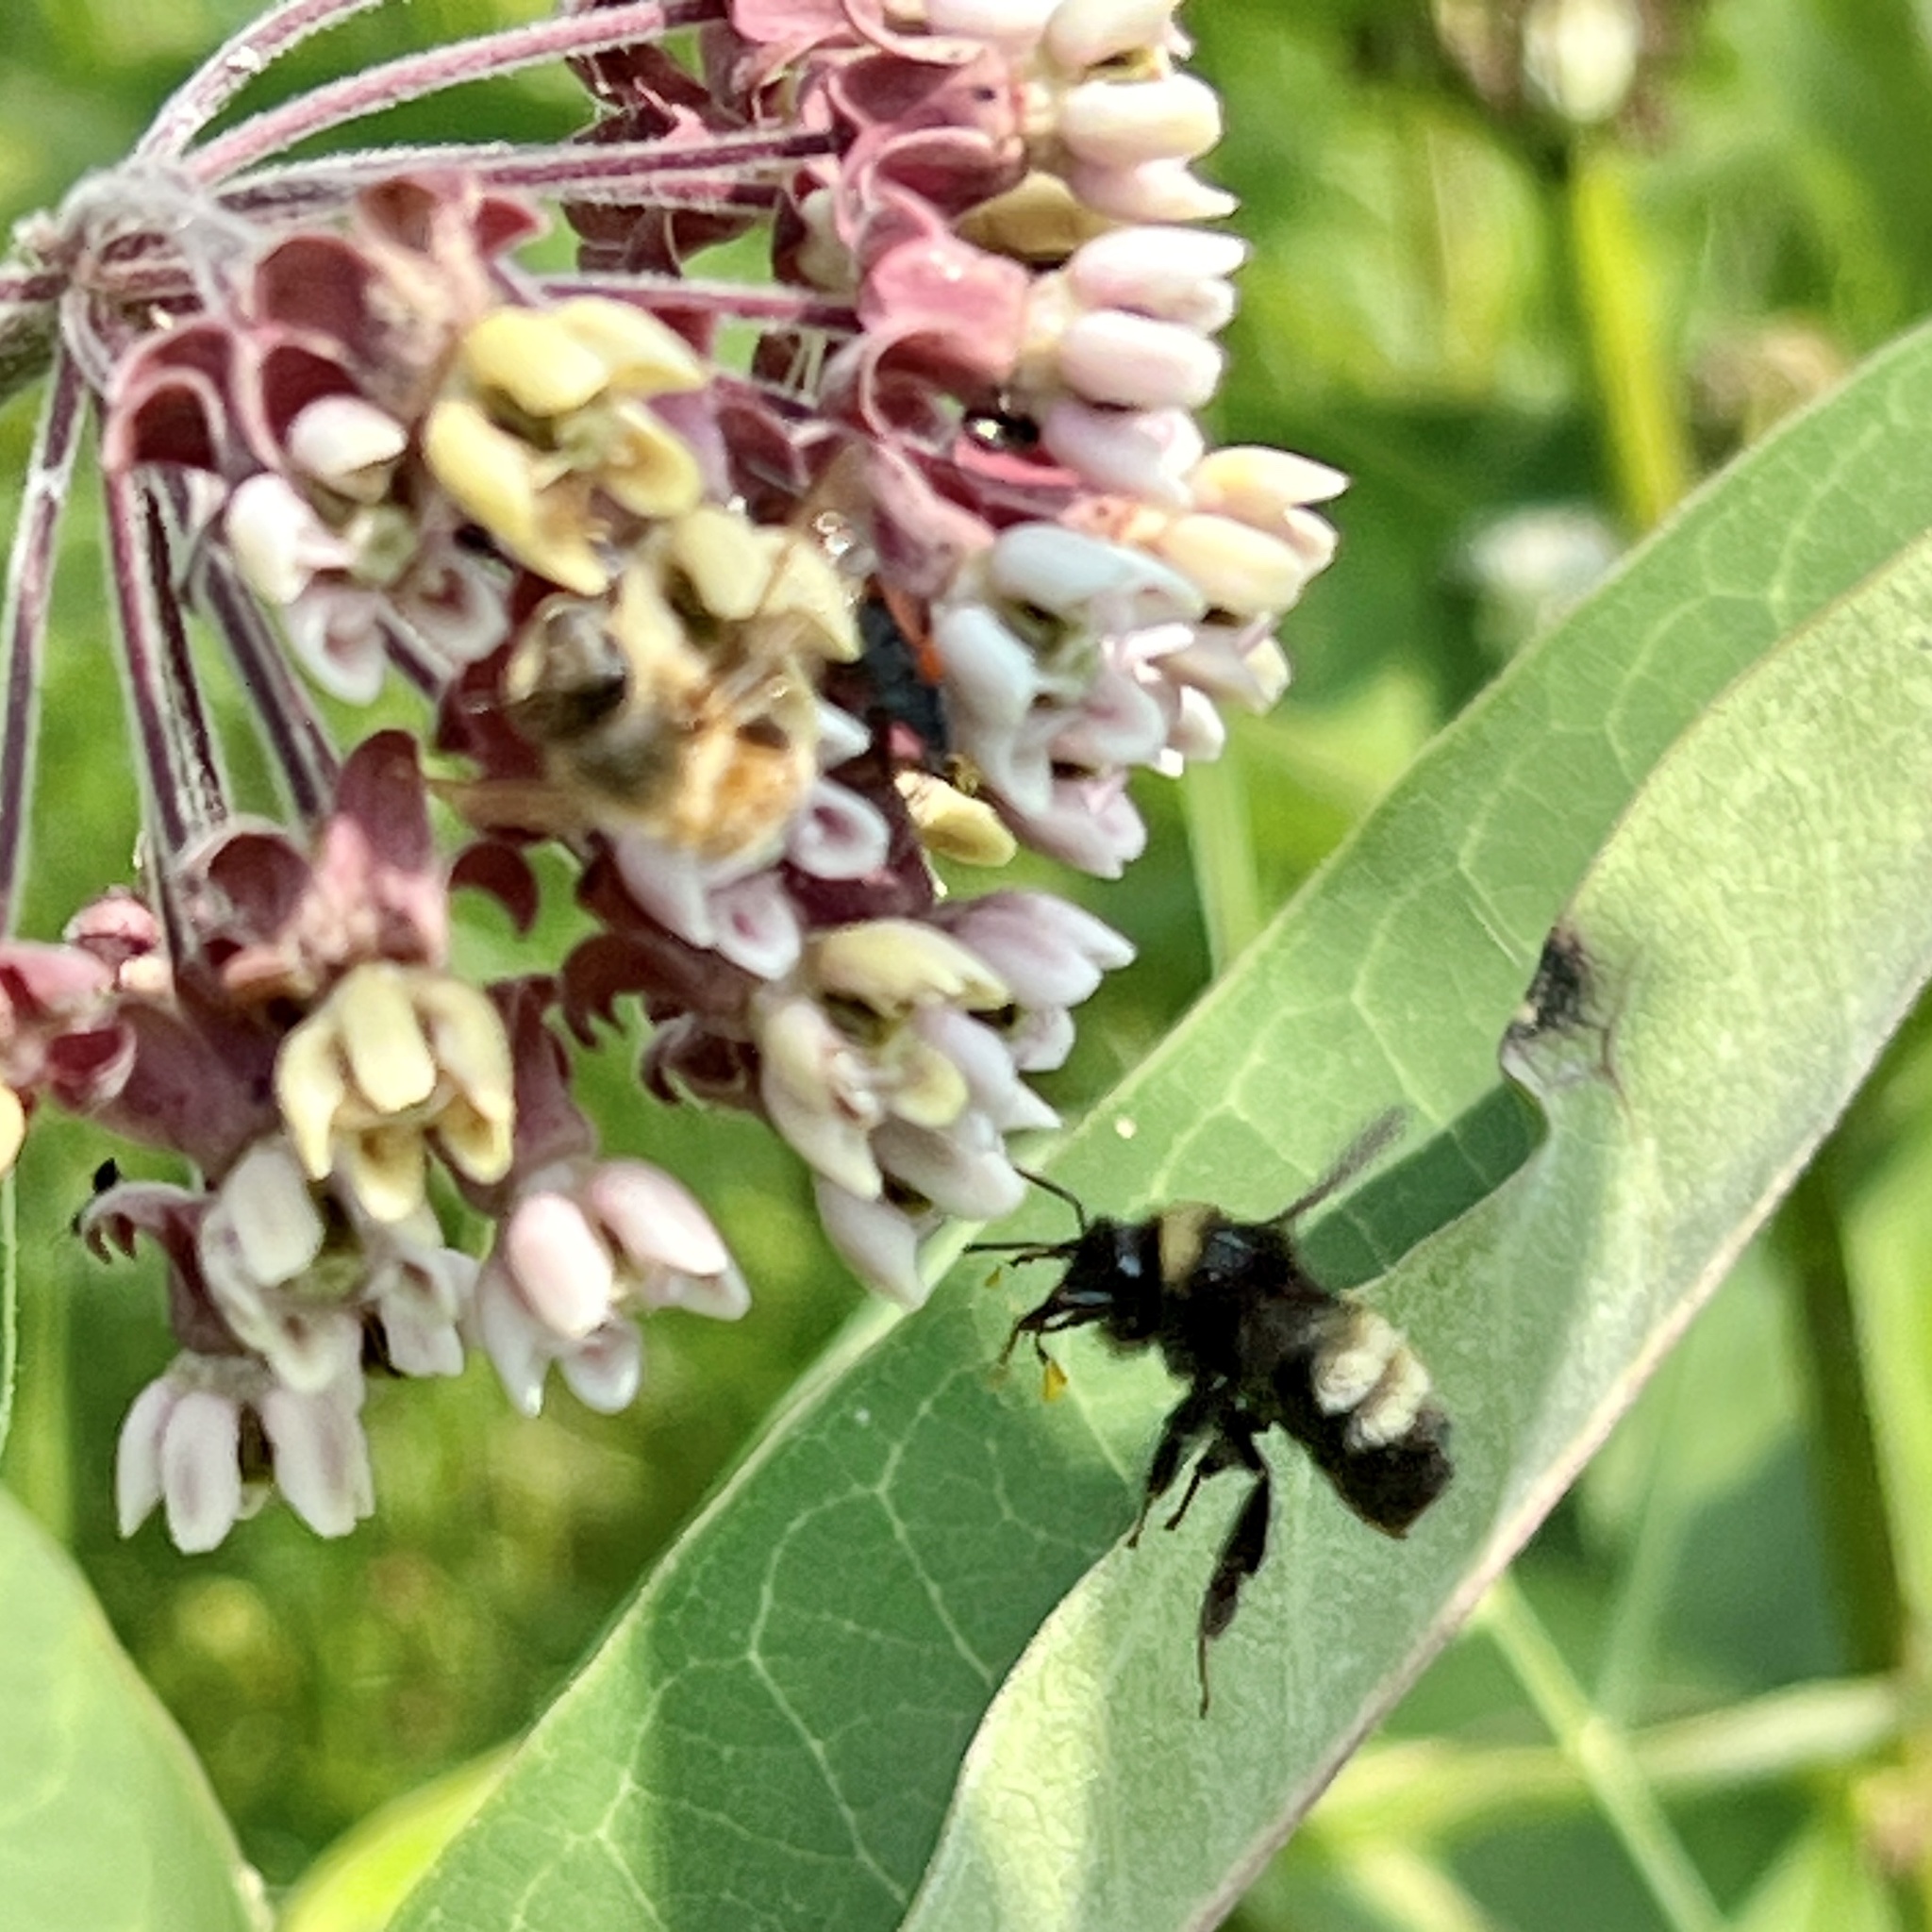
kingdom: Animalia
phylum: Arthropoda
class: Insecta
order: Hymenoptera
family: Apidae
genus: Bombus
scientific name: Bombus terricola
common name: Yellow-banded bumble bee
